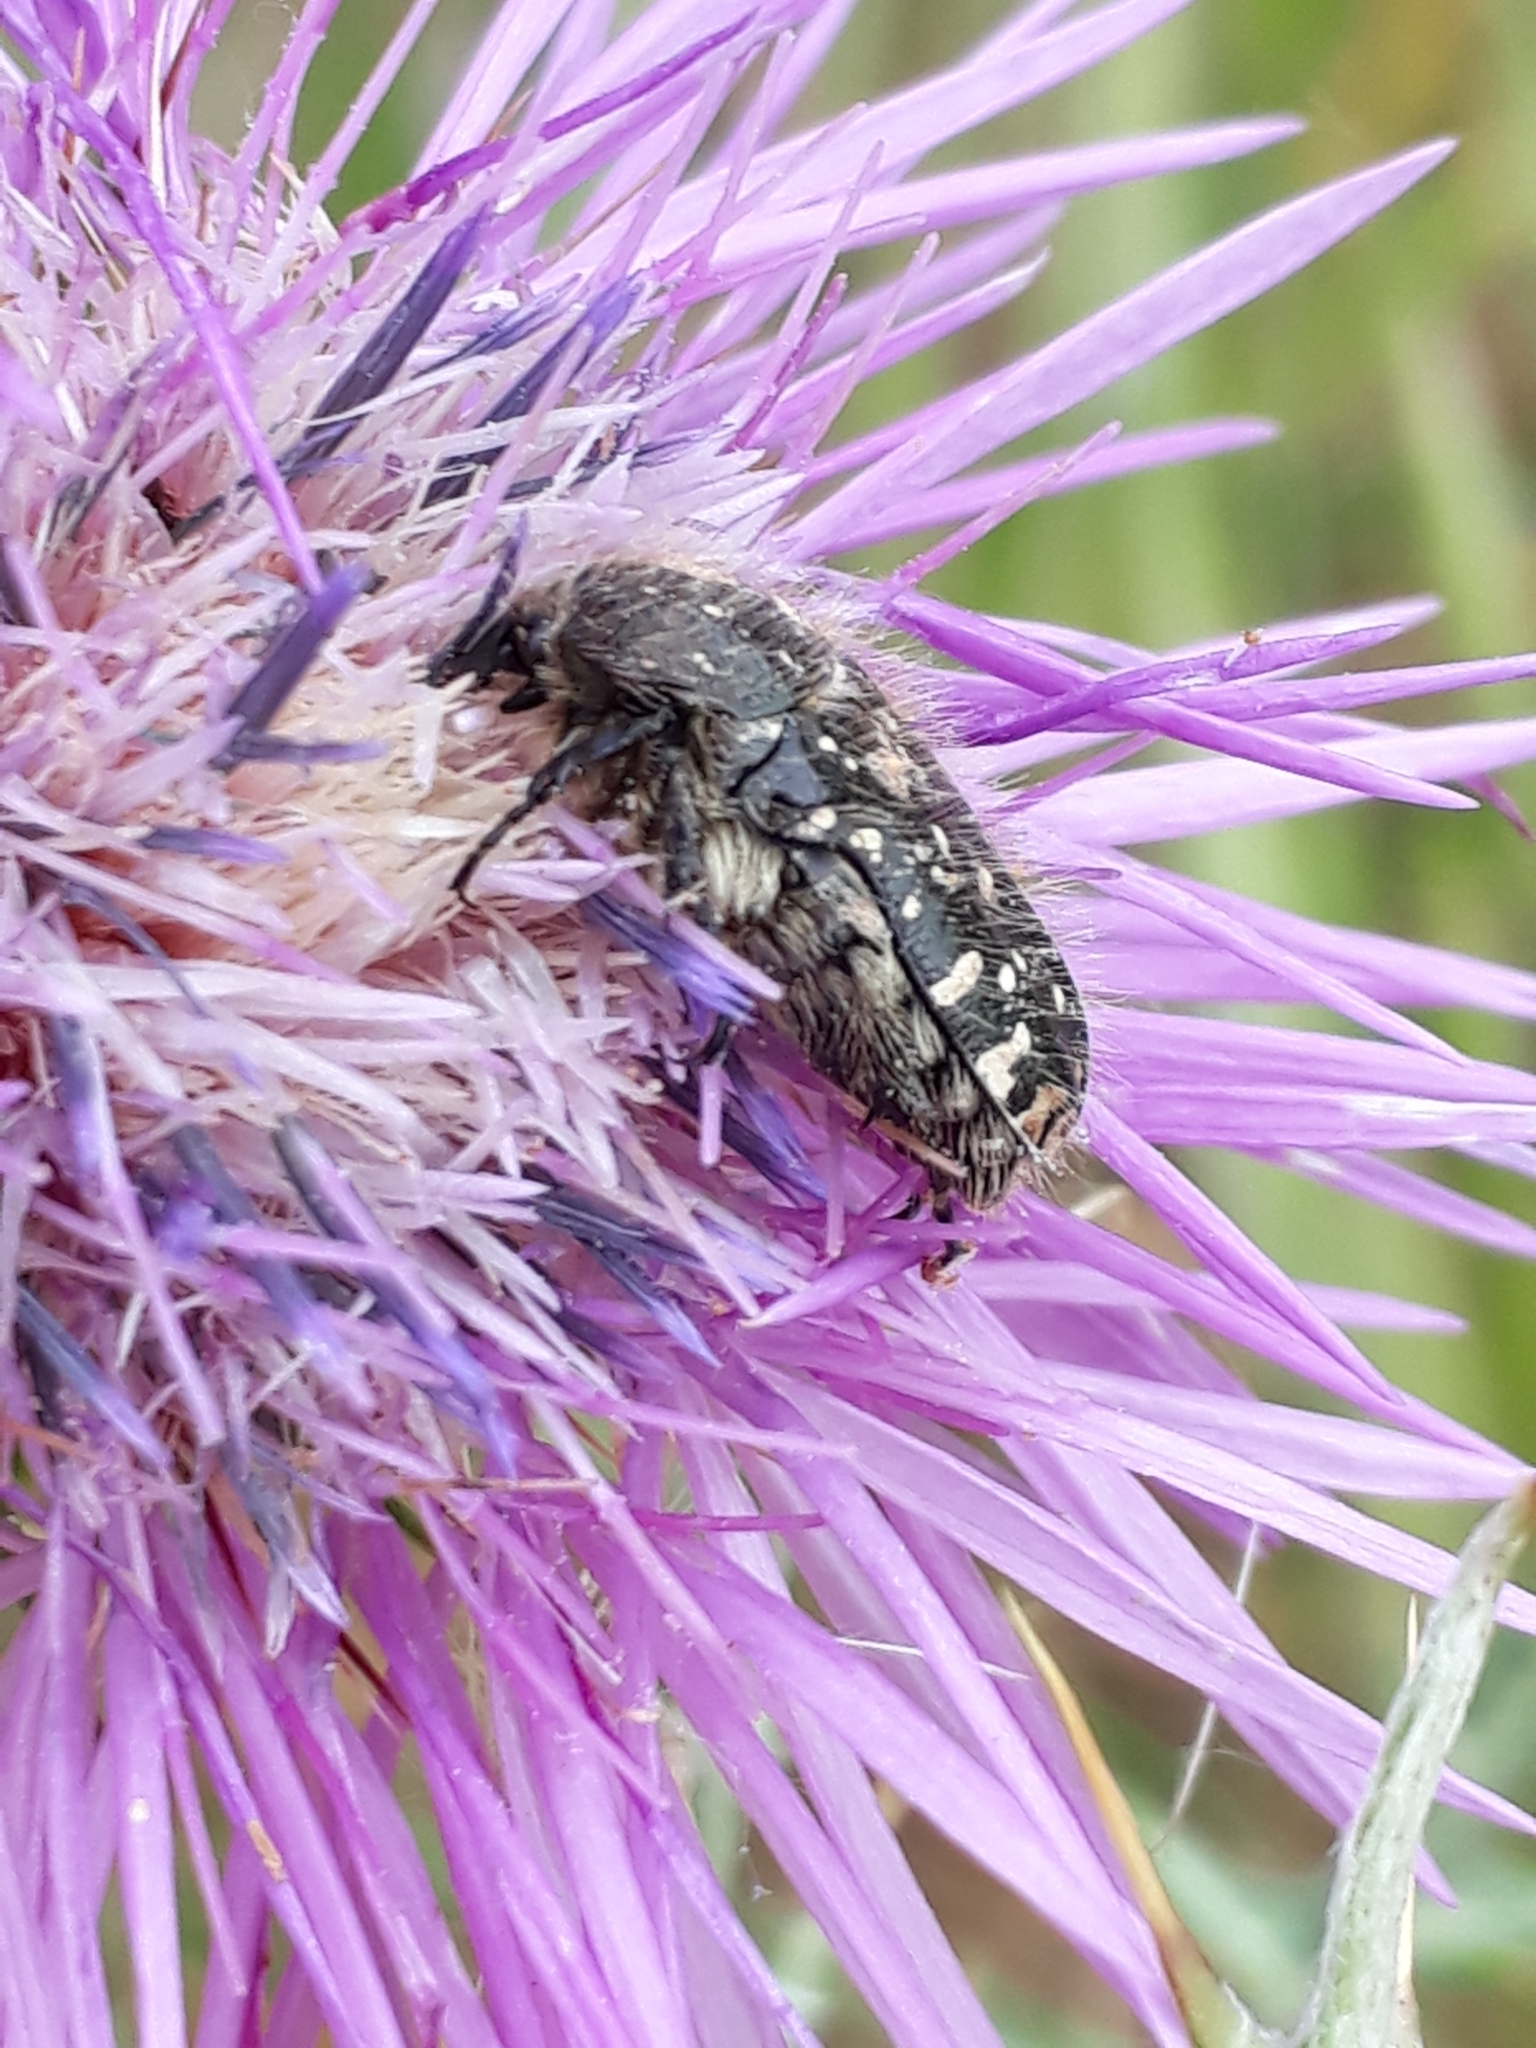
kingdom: Animalia
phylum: Arthropoda
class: Insecta
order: Coleoptera
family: Scarabaeidae
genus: Oxythyrea
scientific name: Oxythyrea funesta
